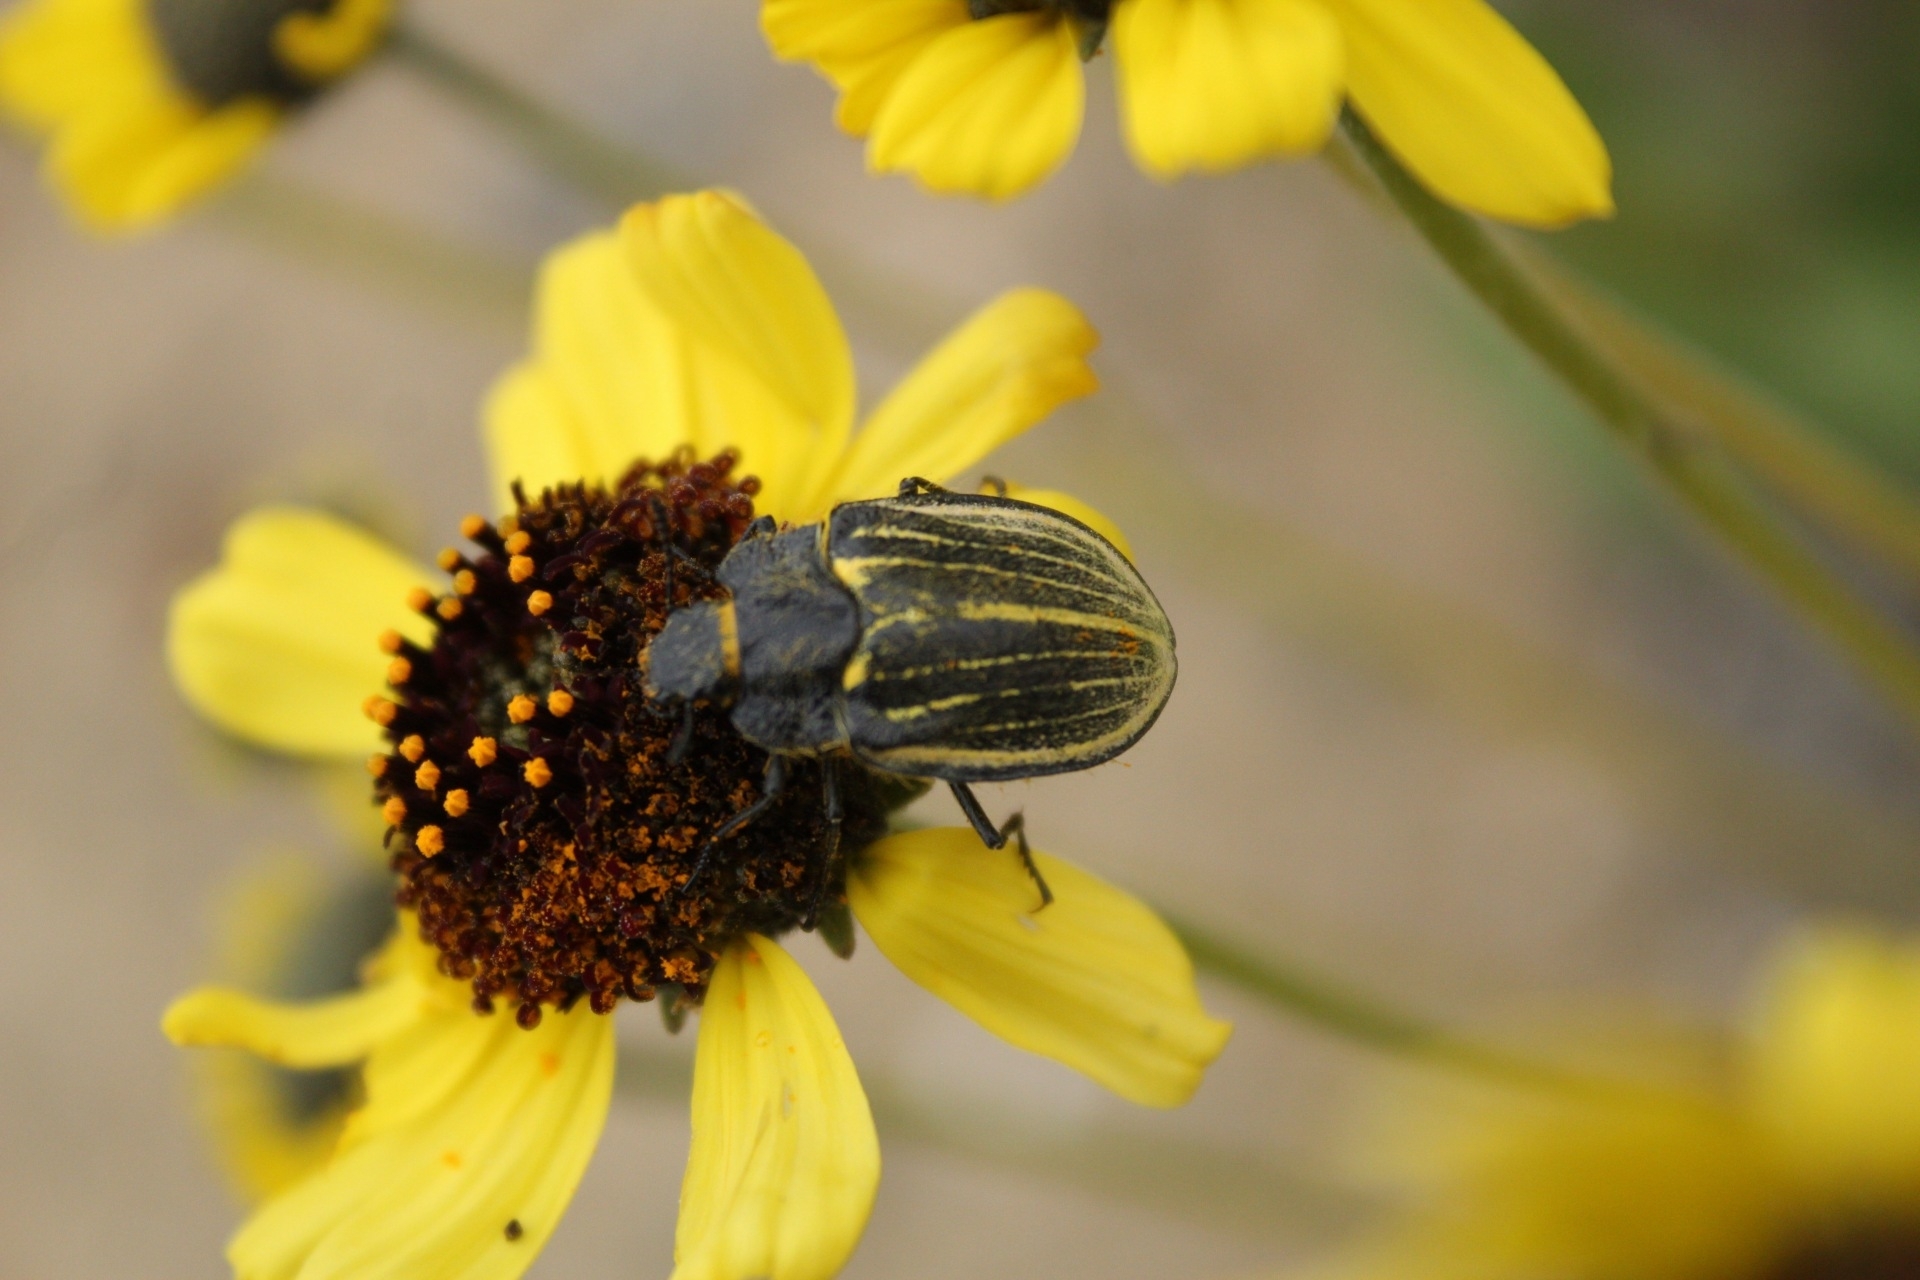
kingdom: Animalia
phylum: Arthropoda
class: Insecta
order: Coleoptera
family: Tenebrionidae
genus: Geoborus
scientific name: Geoborus
